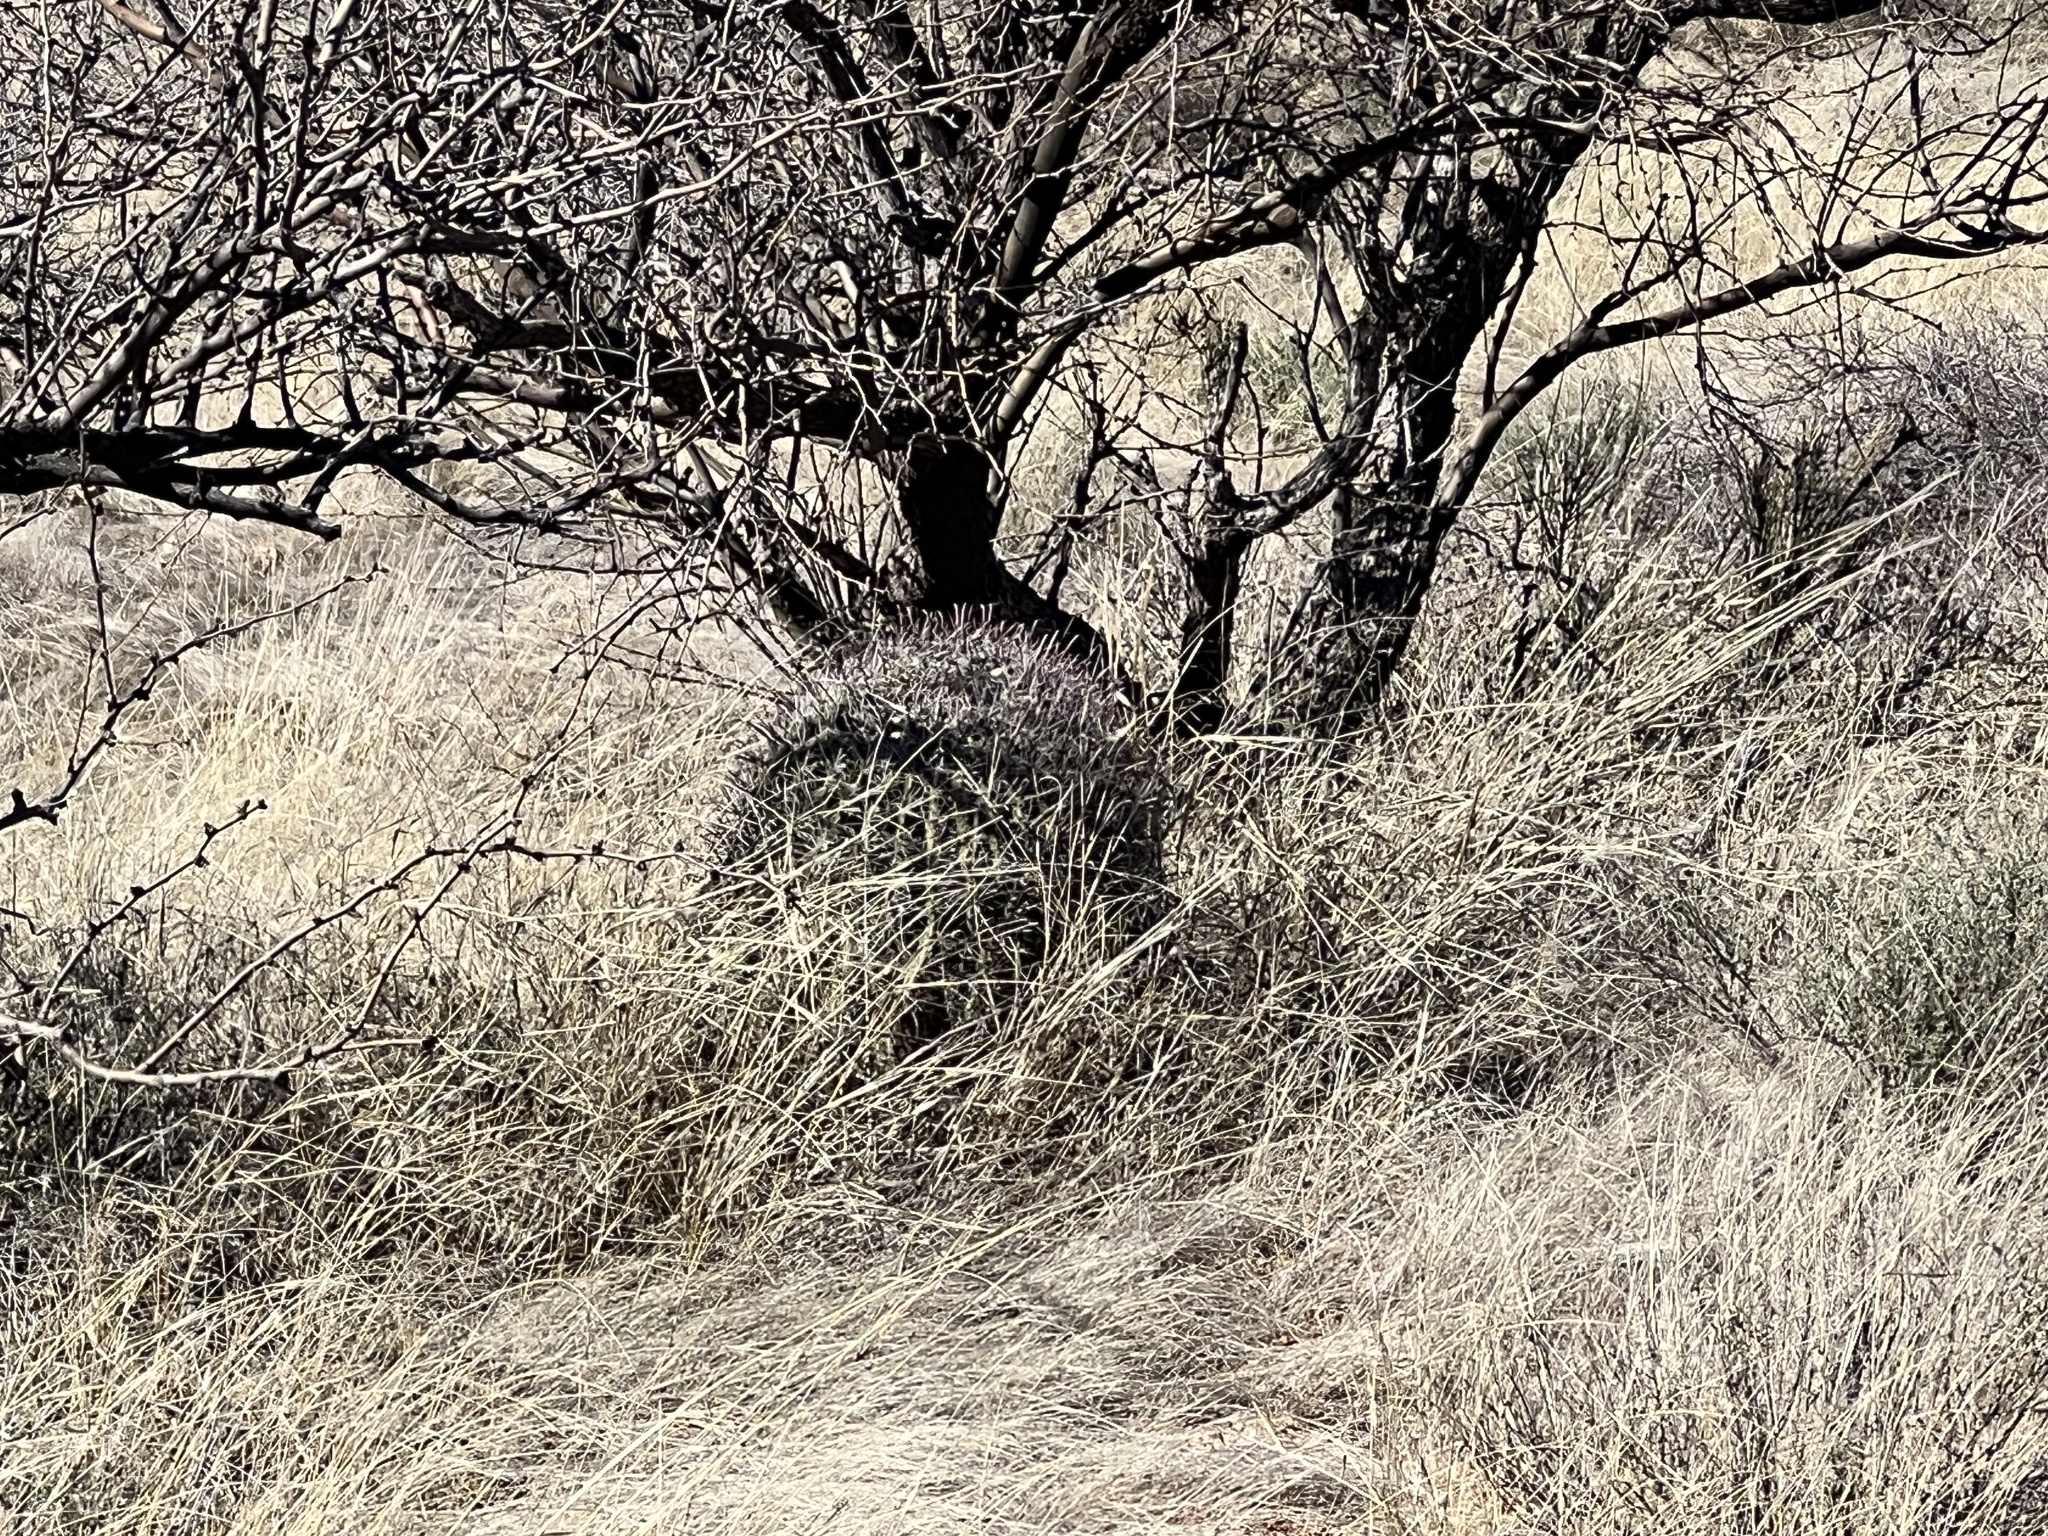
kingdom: Plantae
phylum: Tracheophyta
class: Magnoliopsida
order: Caryophyllales
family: Cactaceae
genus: Ferocactus
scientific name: Ferocactus wislizeni
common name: Candy barrel cactus
